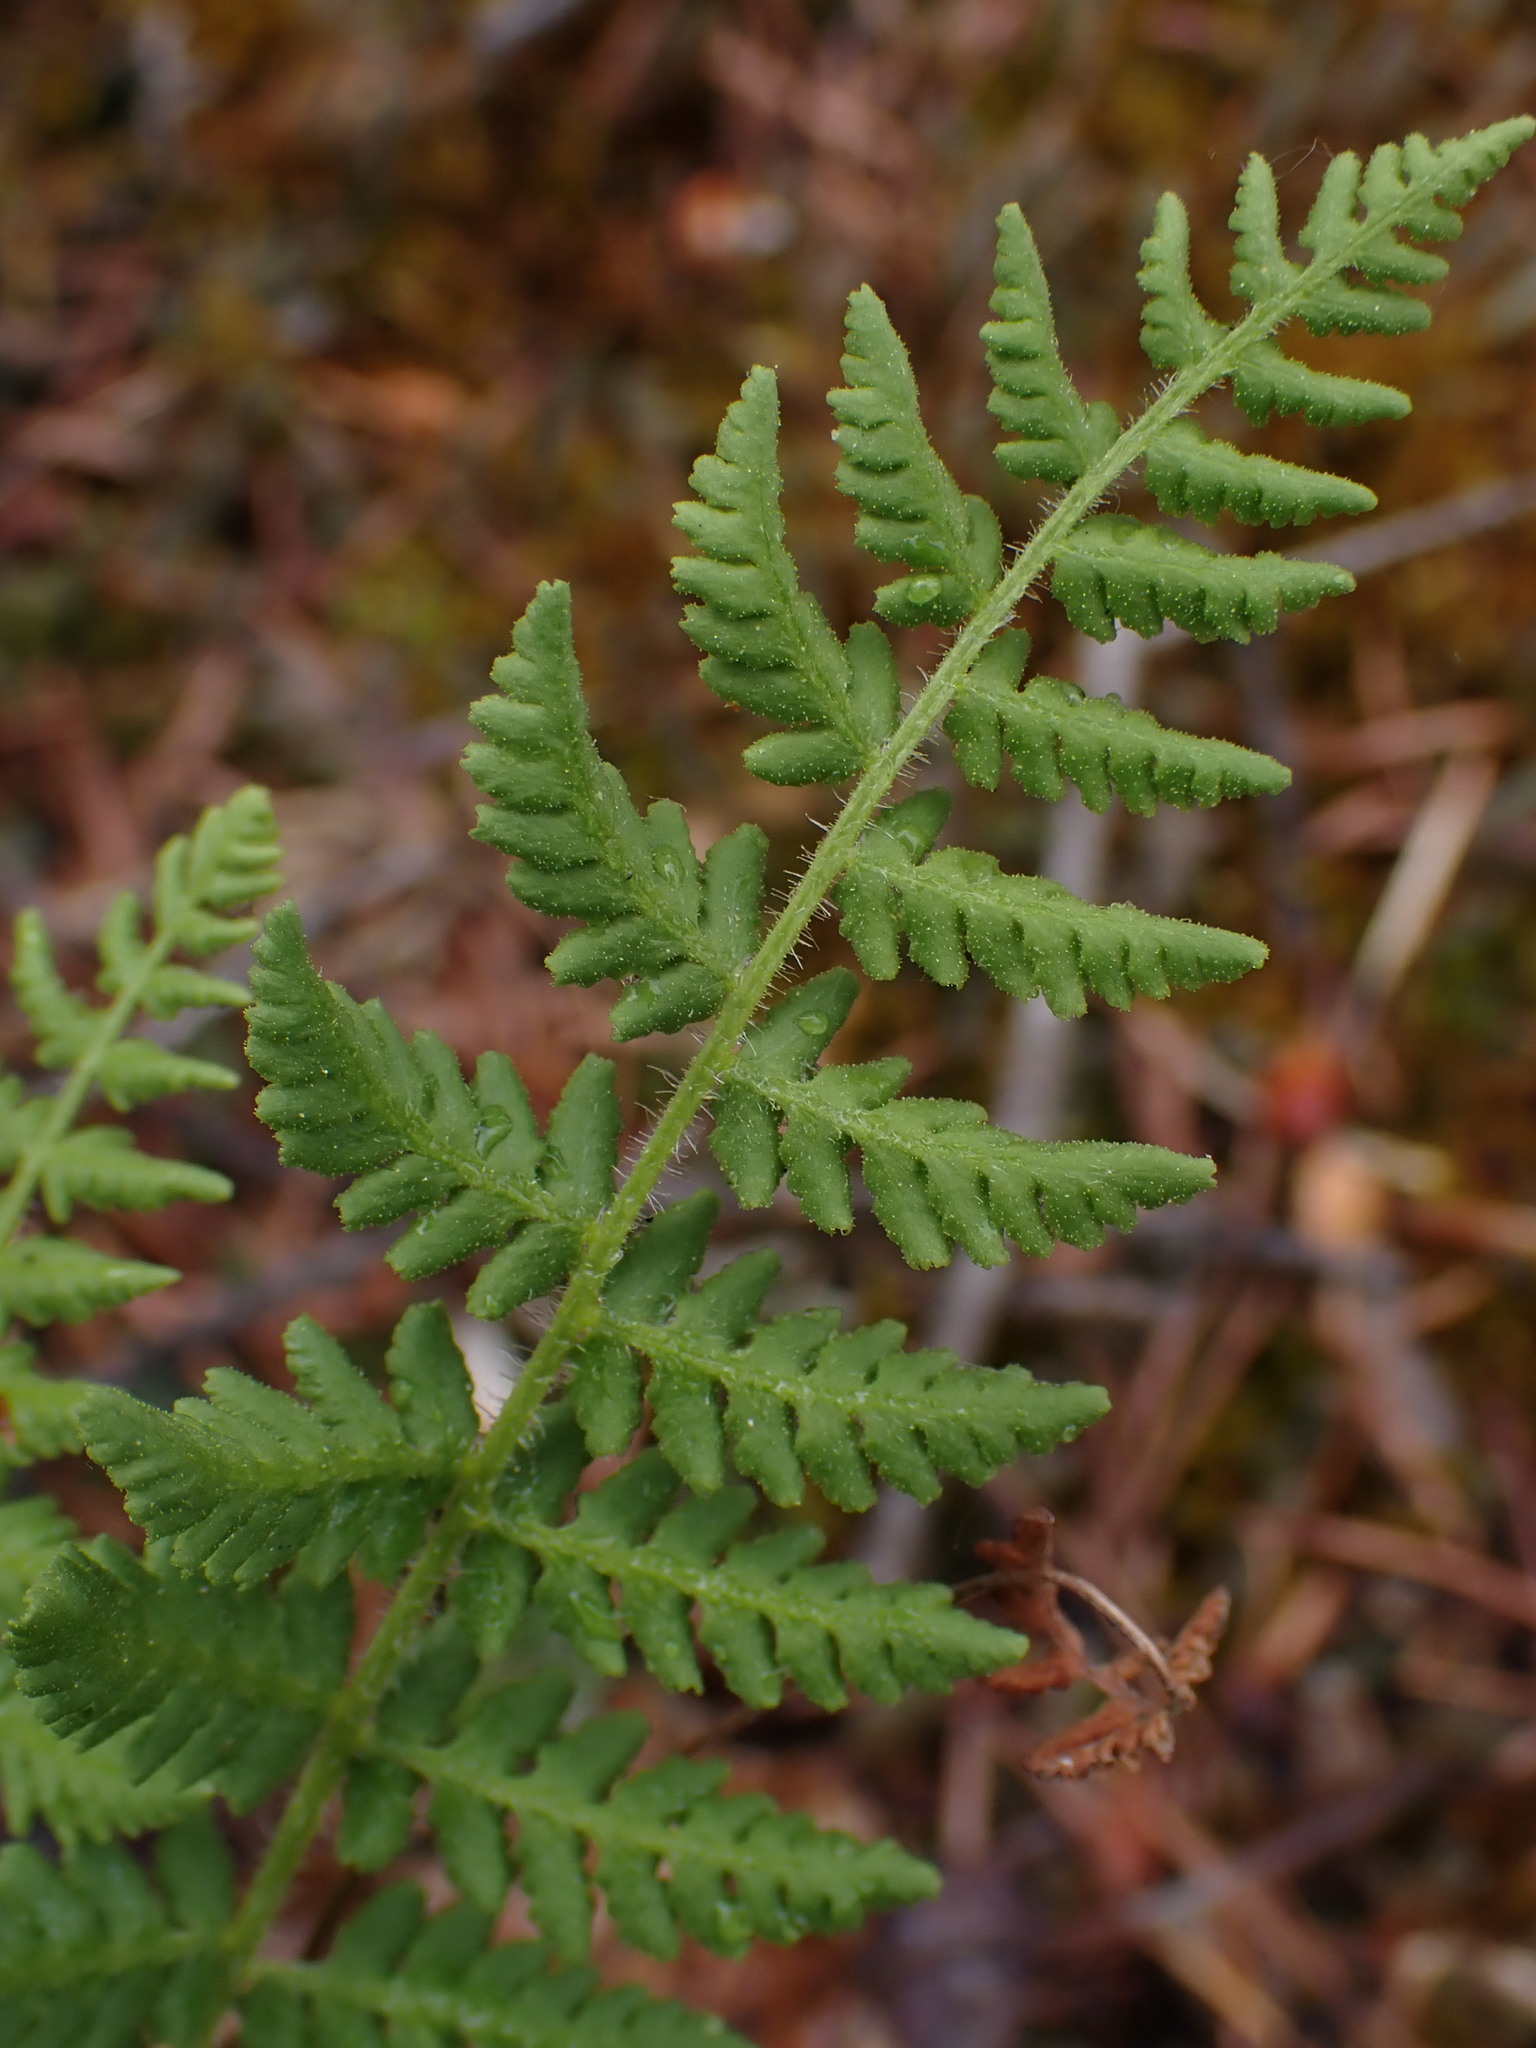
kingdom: Plantae
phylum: Tracheophyta
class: Polypodiopsida
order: Polypodiales
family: Woodsiaceae
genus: Physematium
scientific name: Physematium scopulinum
